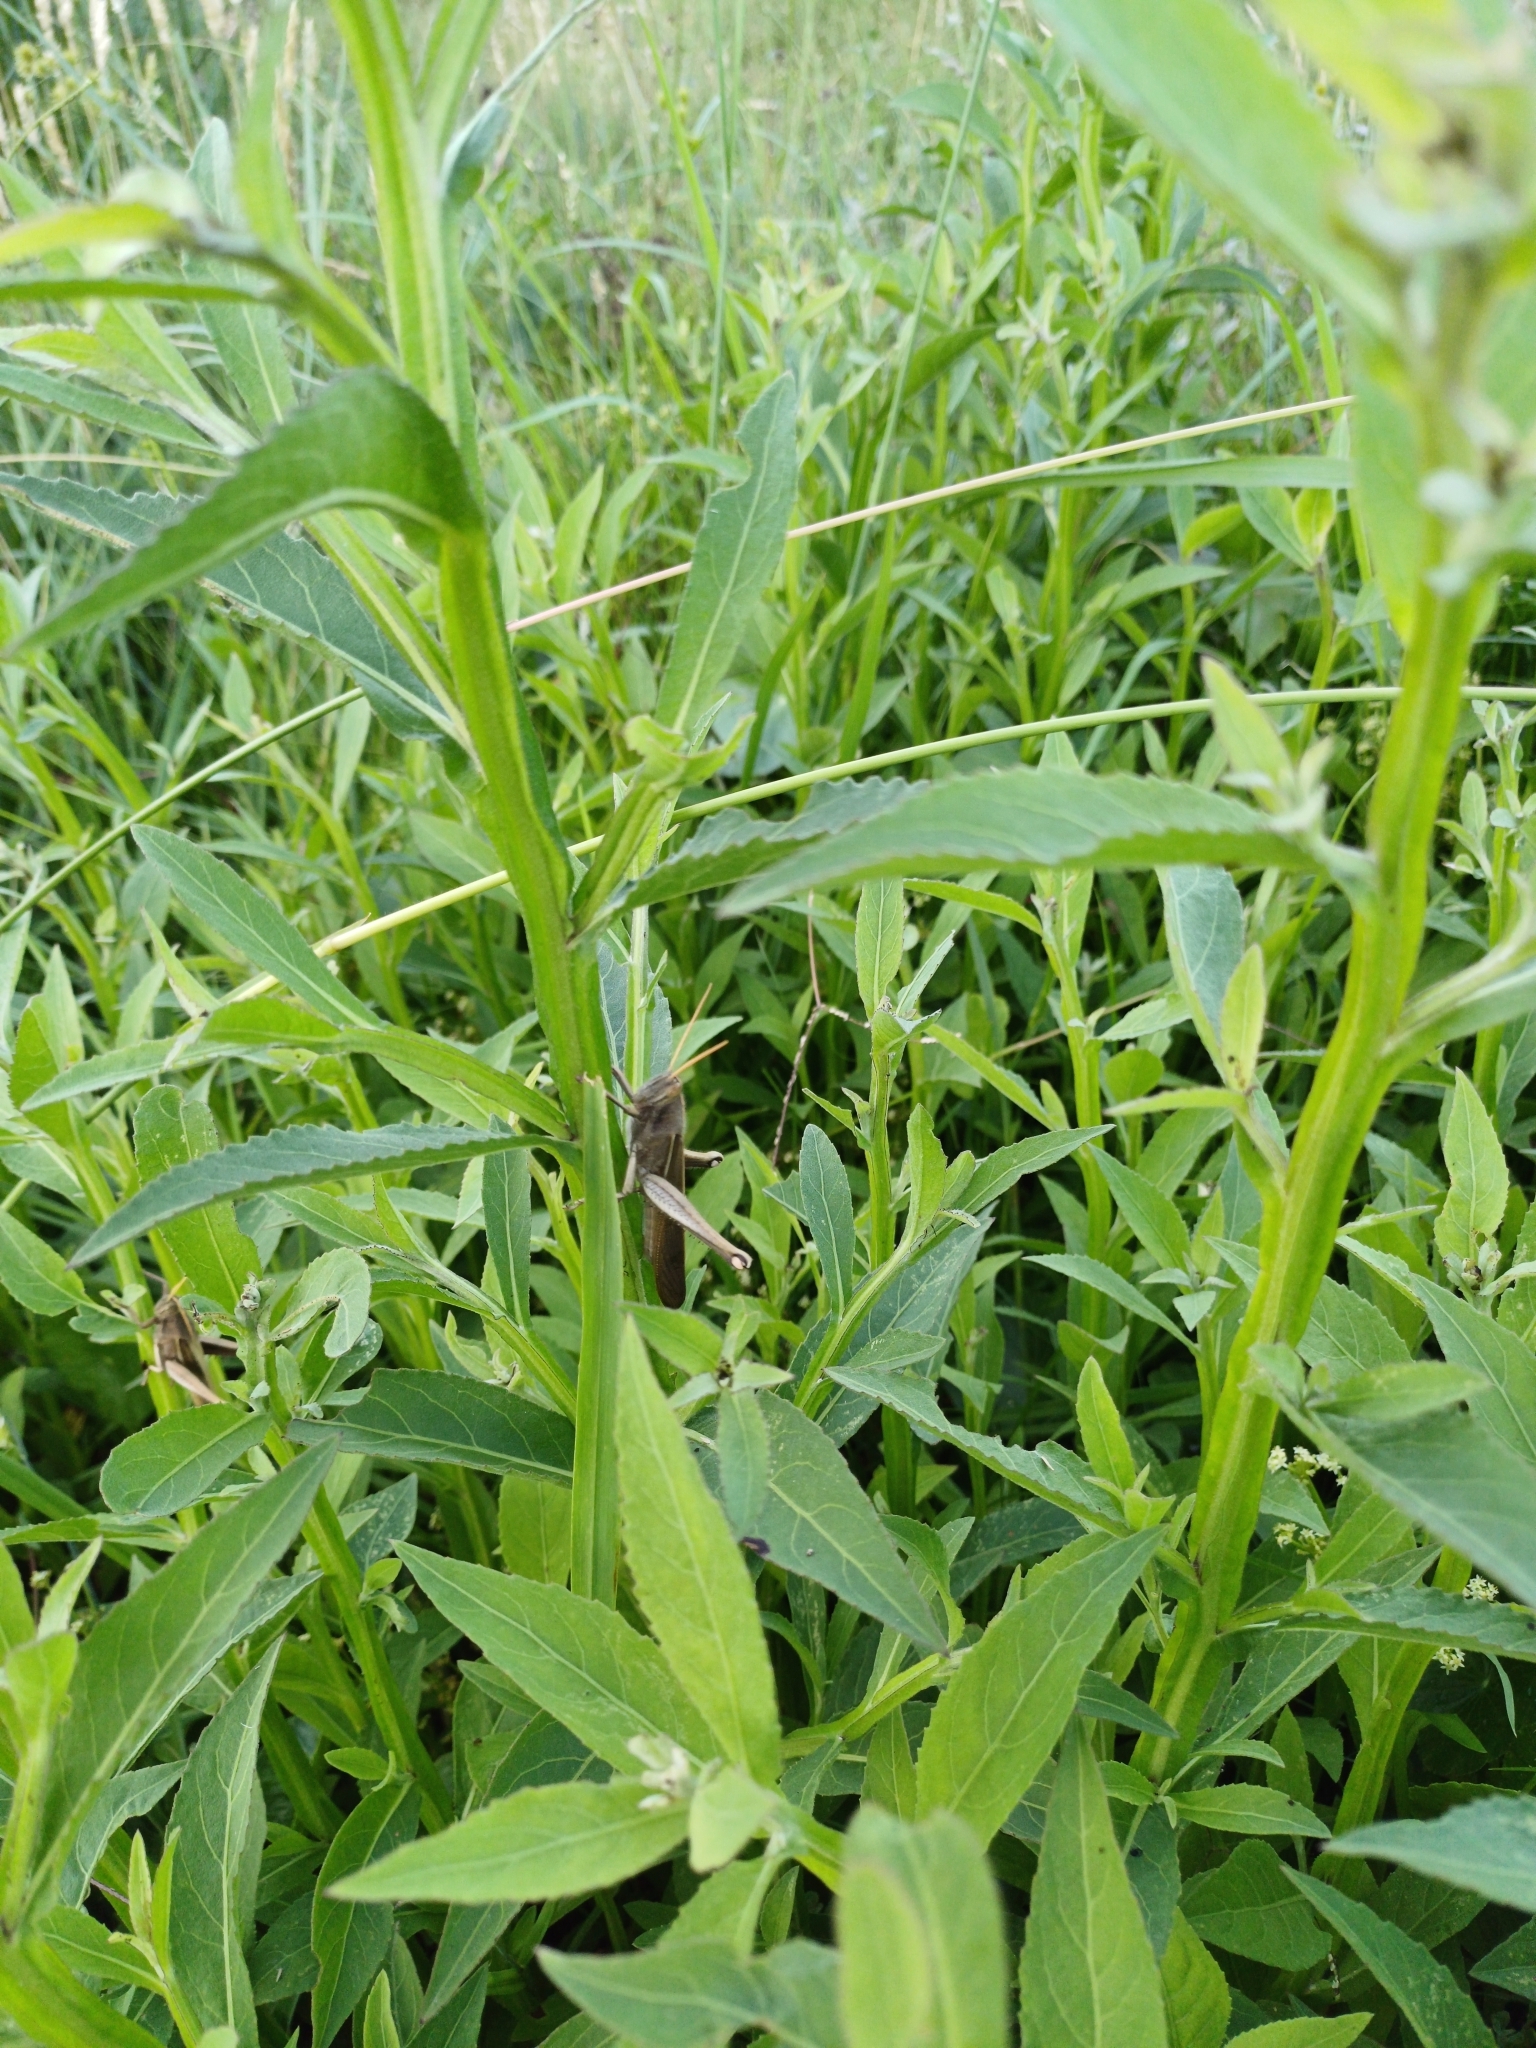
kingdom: Animalia
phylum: Arthropoda
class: Insecta
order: Orthoptera
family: Acrididae
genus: Schistocerca
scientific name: Schistocerca flavofasciata
